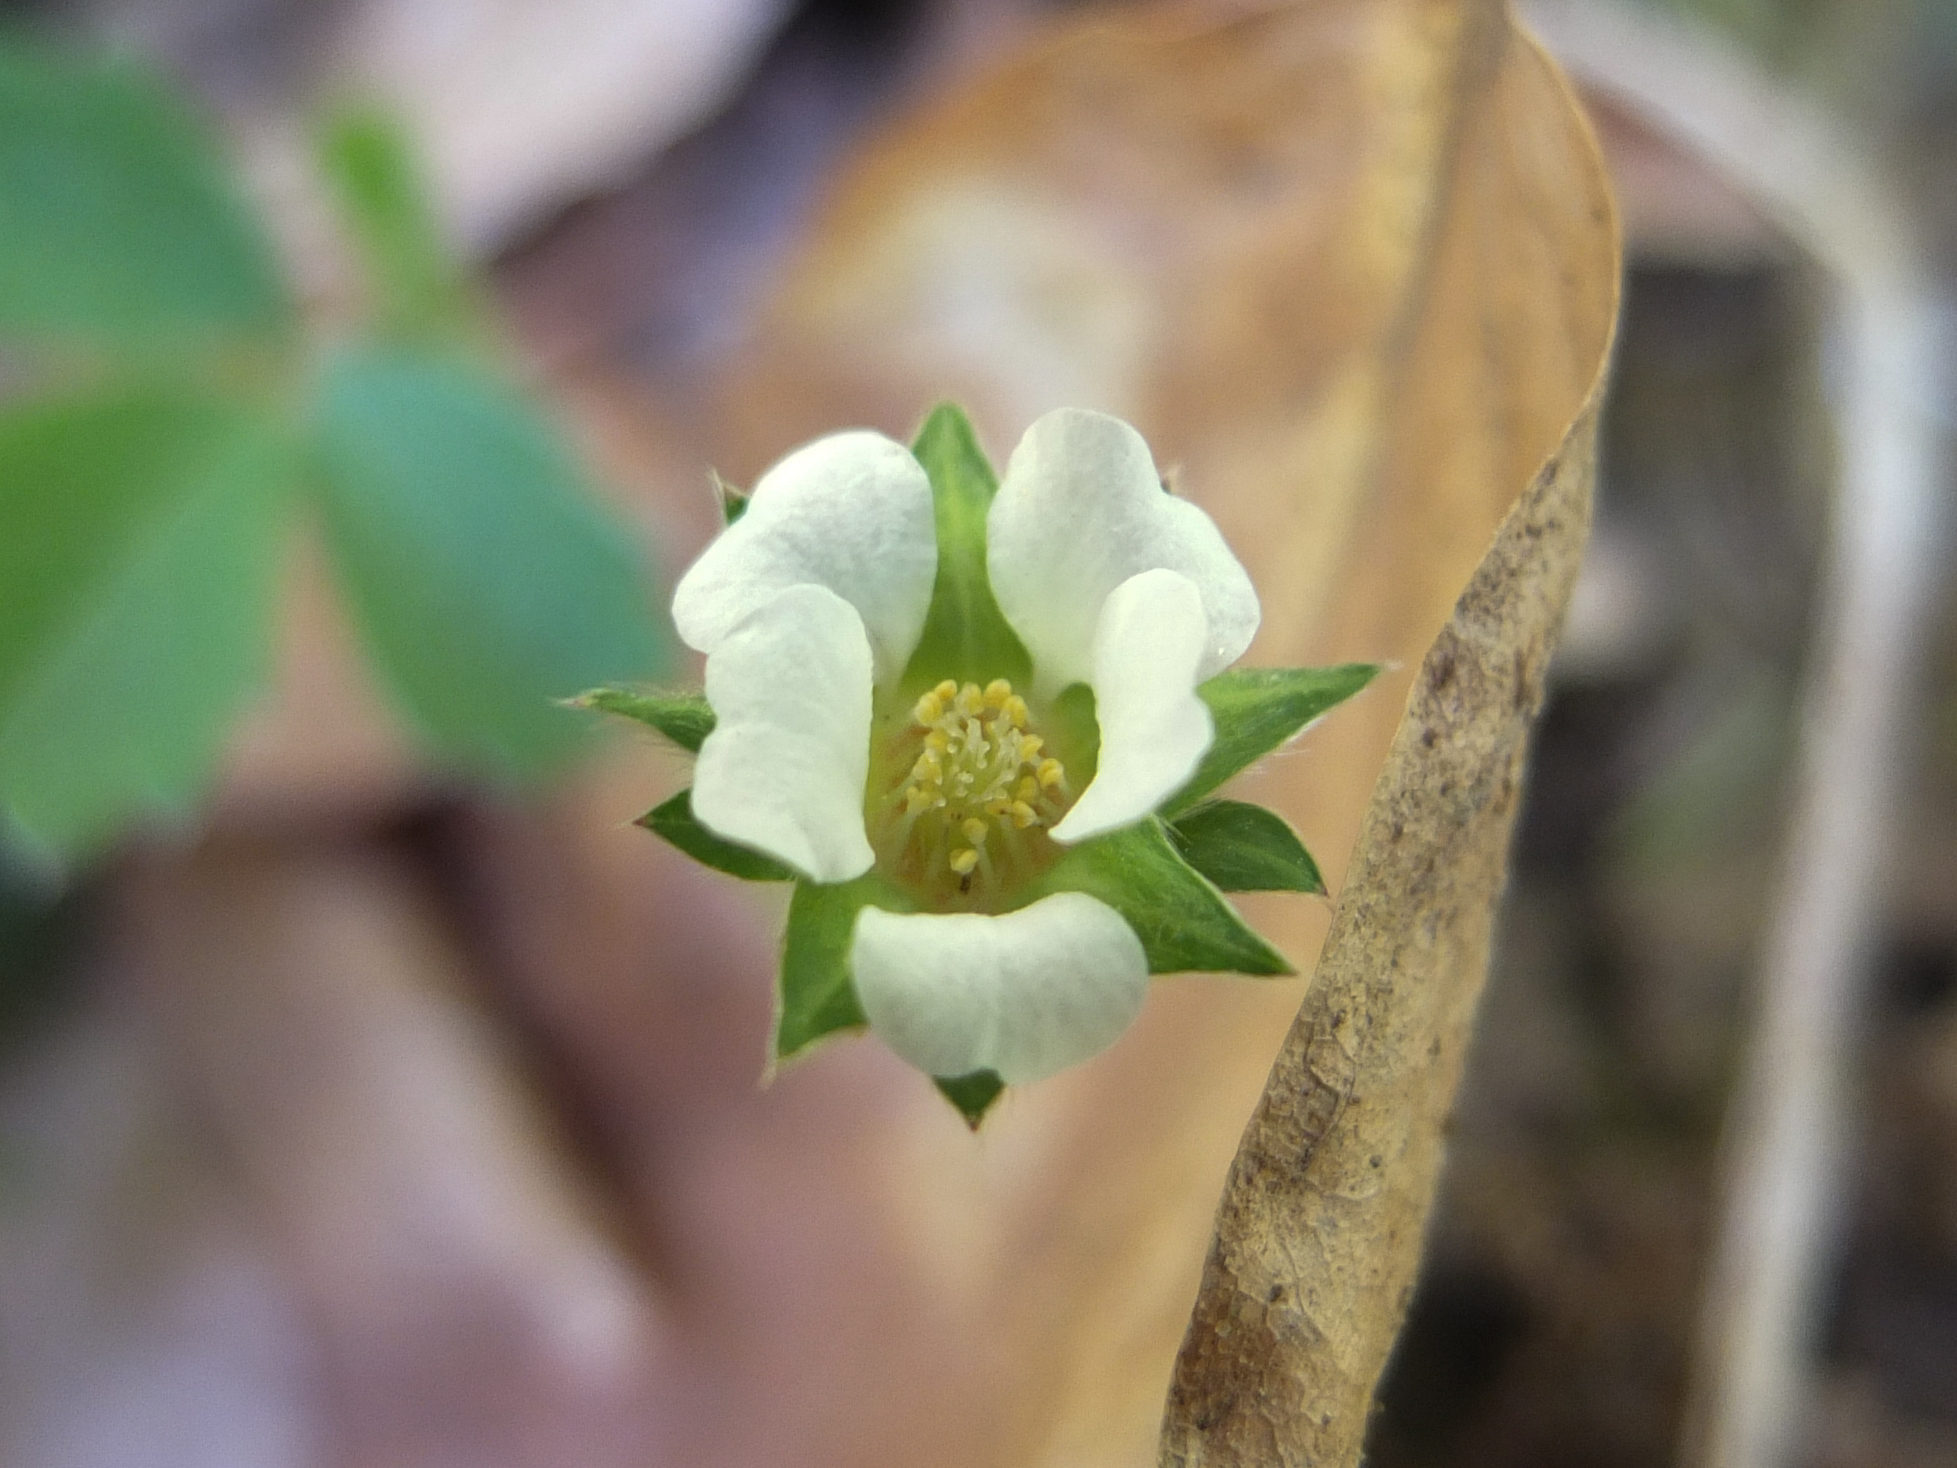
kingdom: Plantae
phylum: Tracheophyta
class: Magnoliopsida
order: Rosales
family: Rosaceae
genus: Potentilla
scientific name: Potentilla sterilis
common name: Barren strawberry
